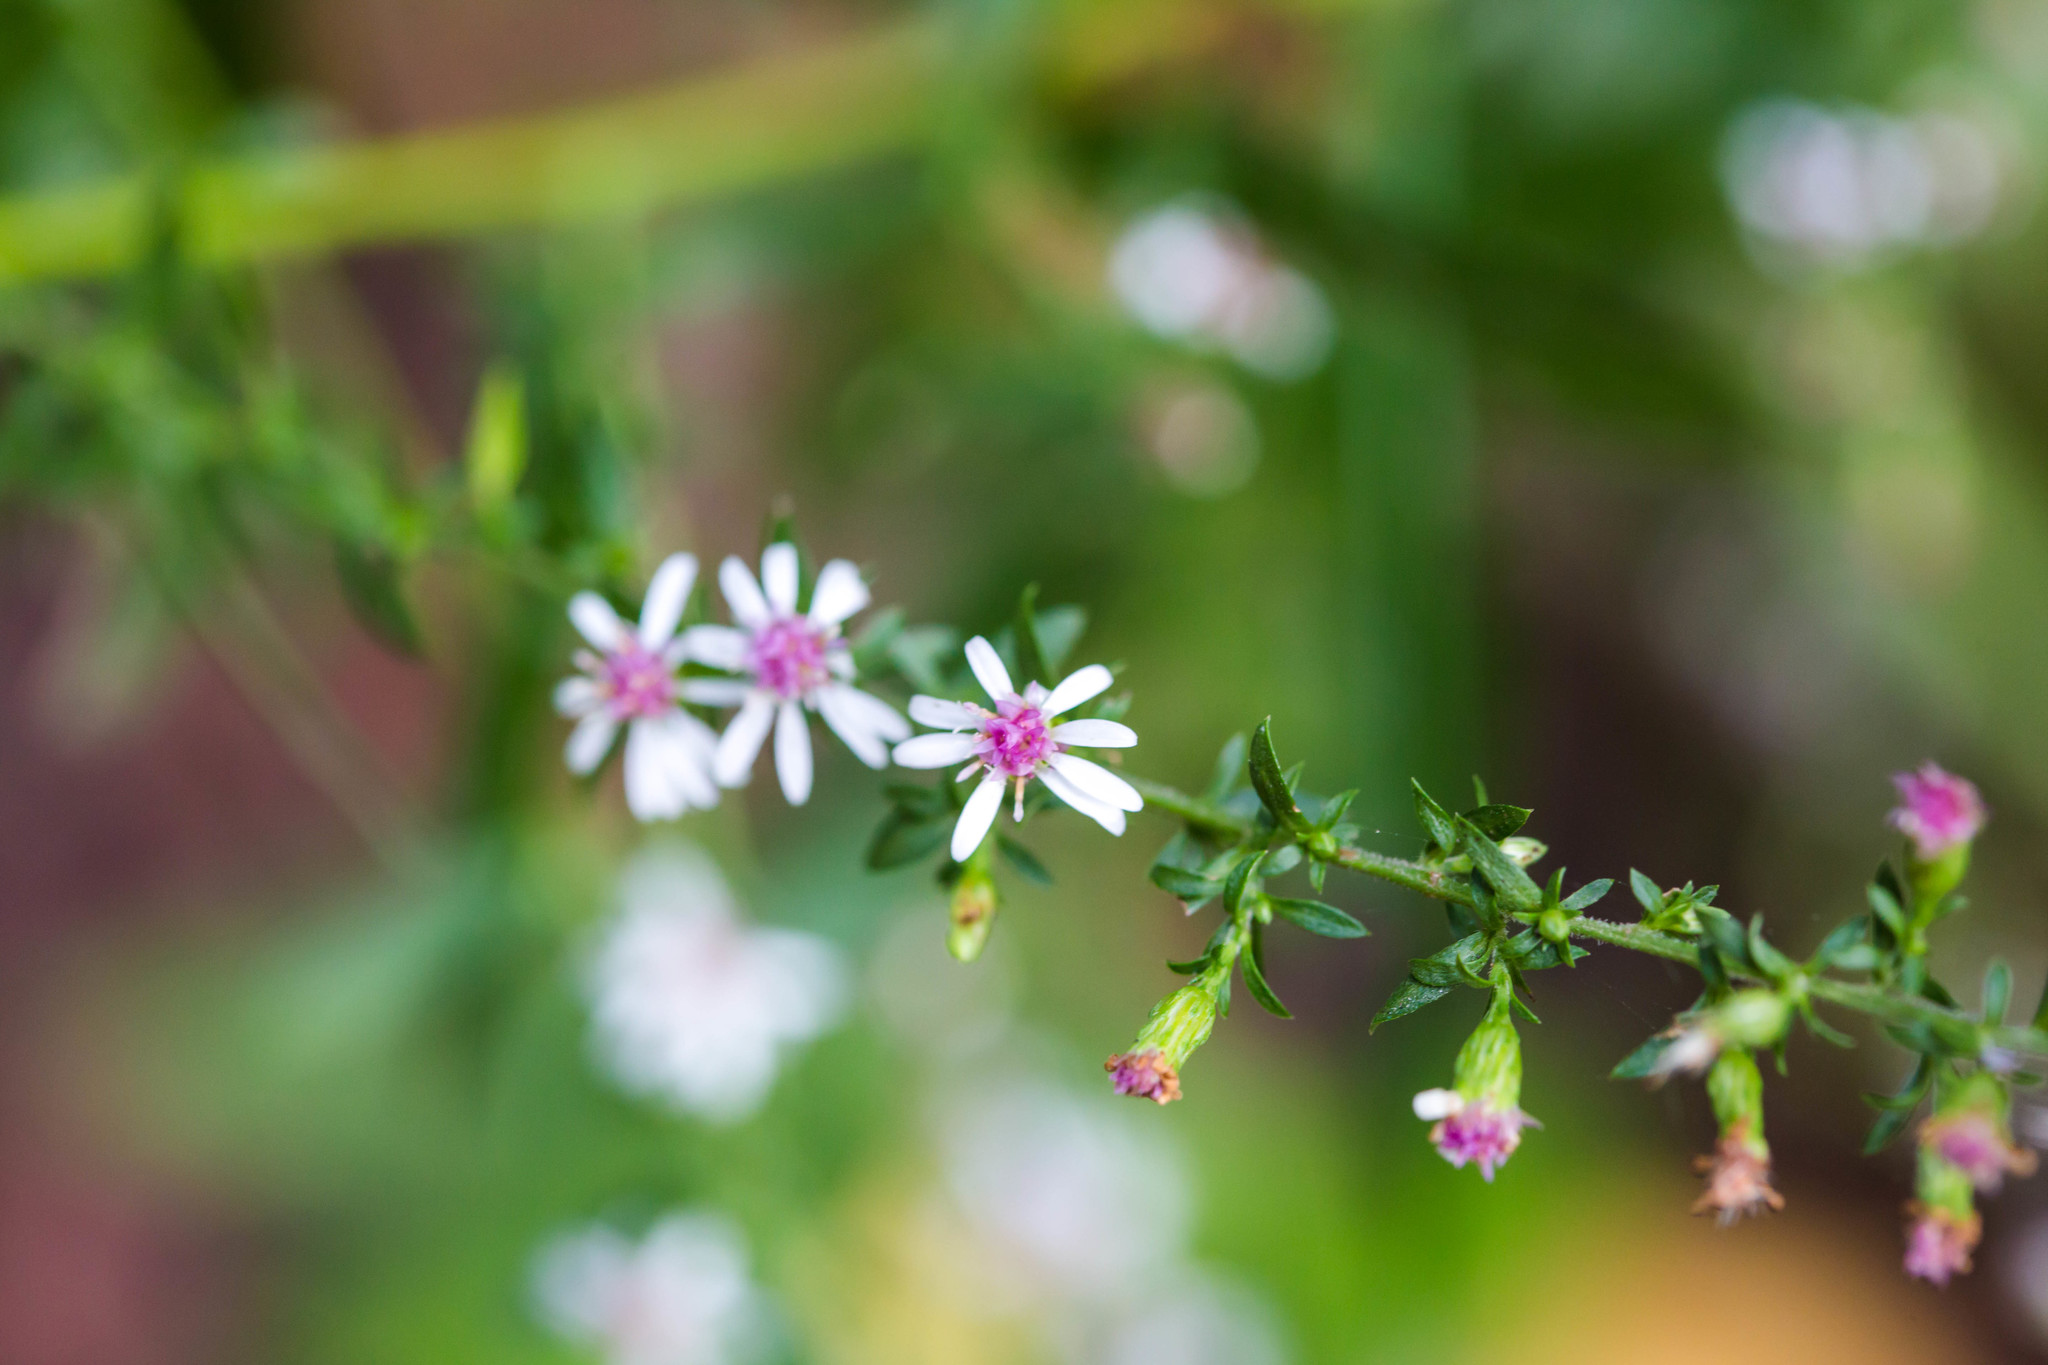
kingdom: Plantae
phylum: Tracheophyta
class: Magnoliopsida
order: Asterales
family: Asteraceae
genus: Symphyotrichum
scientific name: Symphyotrichum lateriflorum
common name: Calico aster
